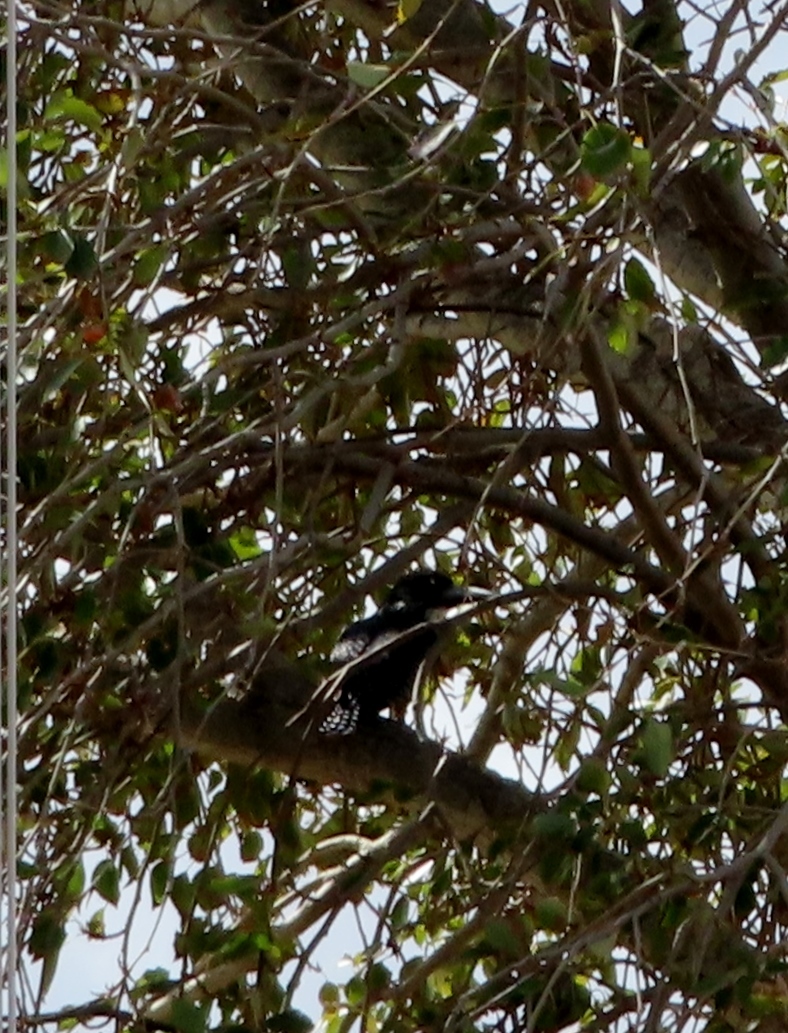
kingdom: Animalia
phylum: Chordata
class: Aves
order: Coraciiformes
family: Alcedinidae
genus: Megaceryle
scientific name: Megaceryle maxima
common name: Giant kingfisher
